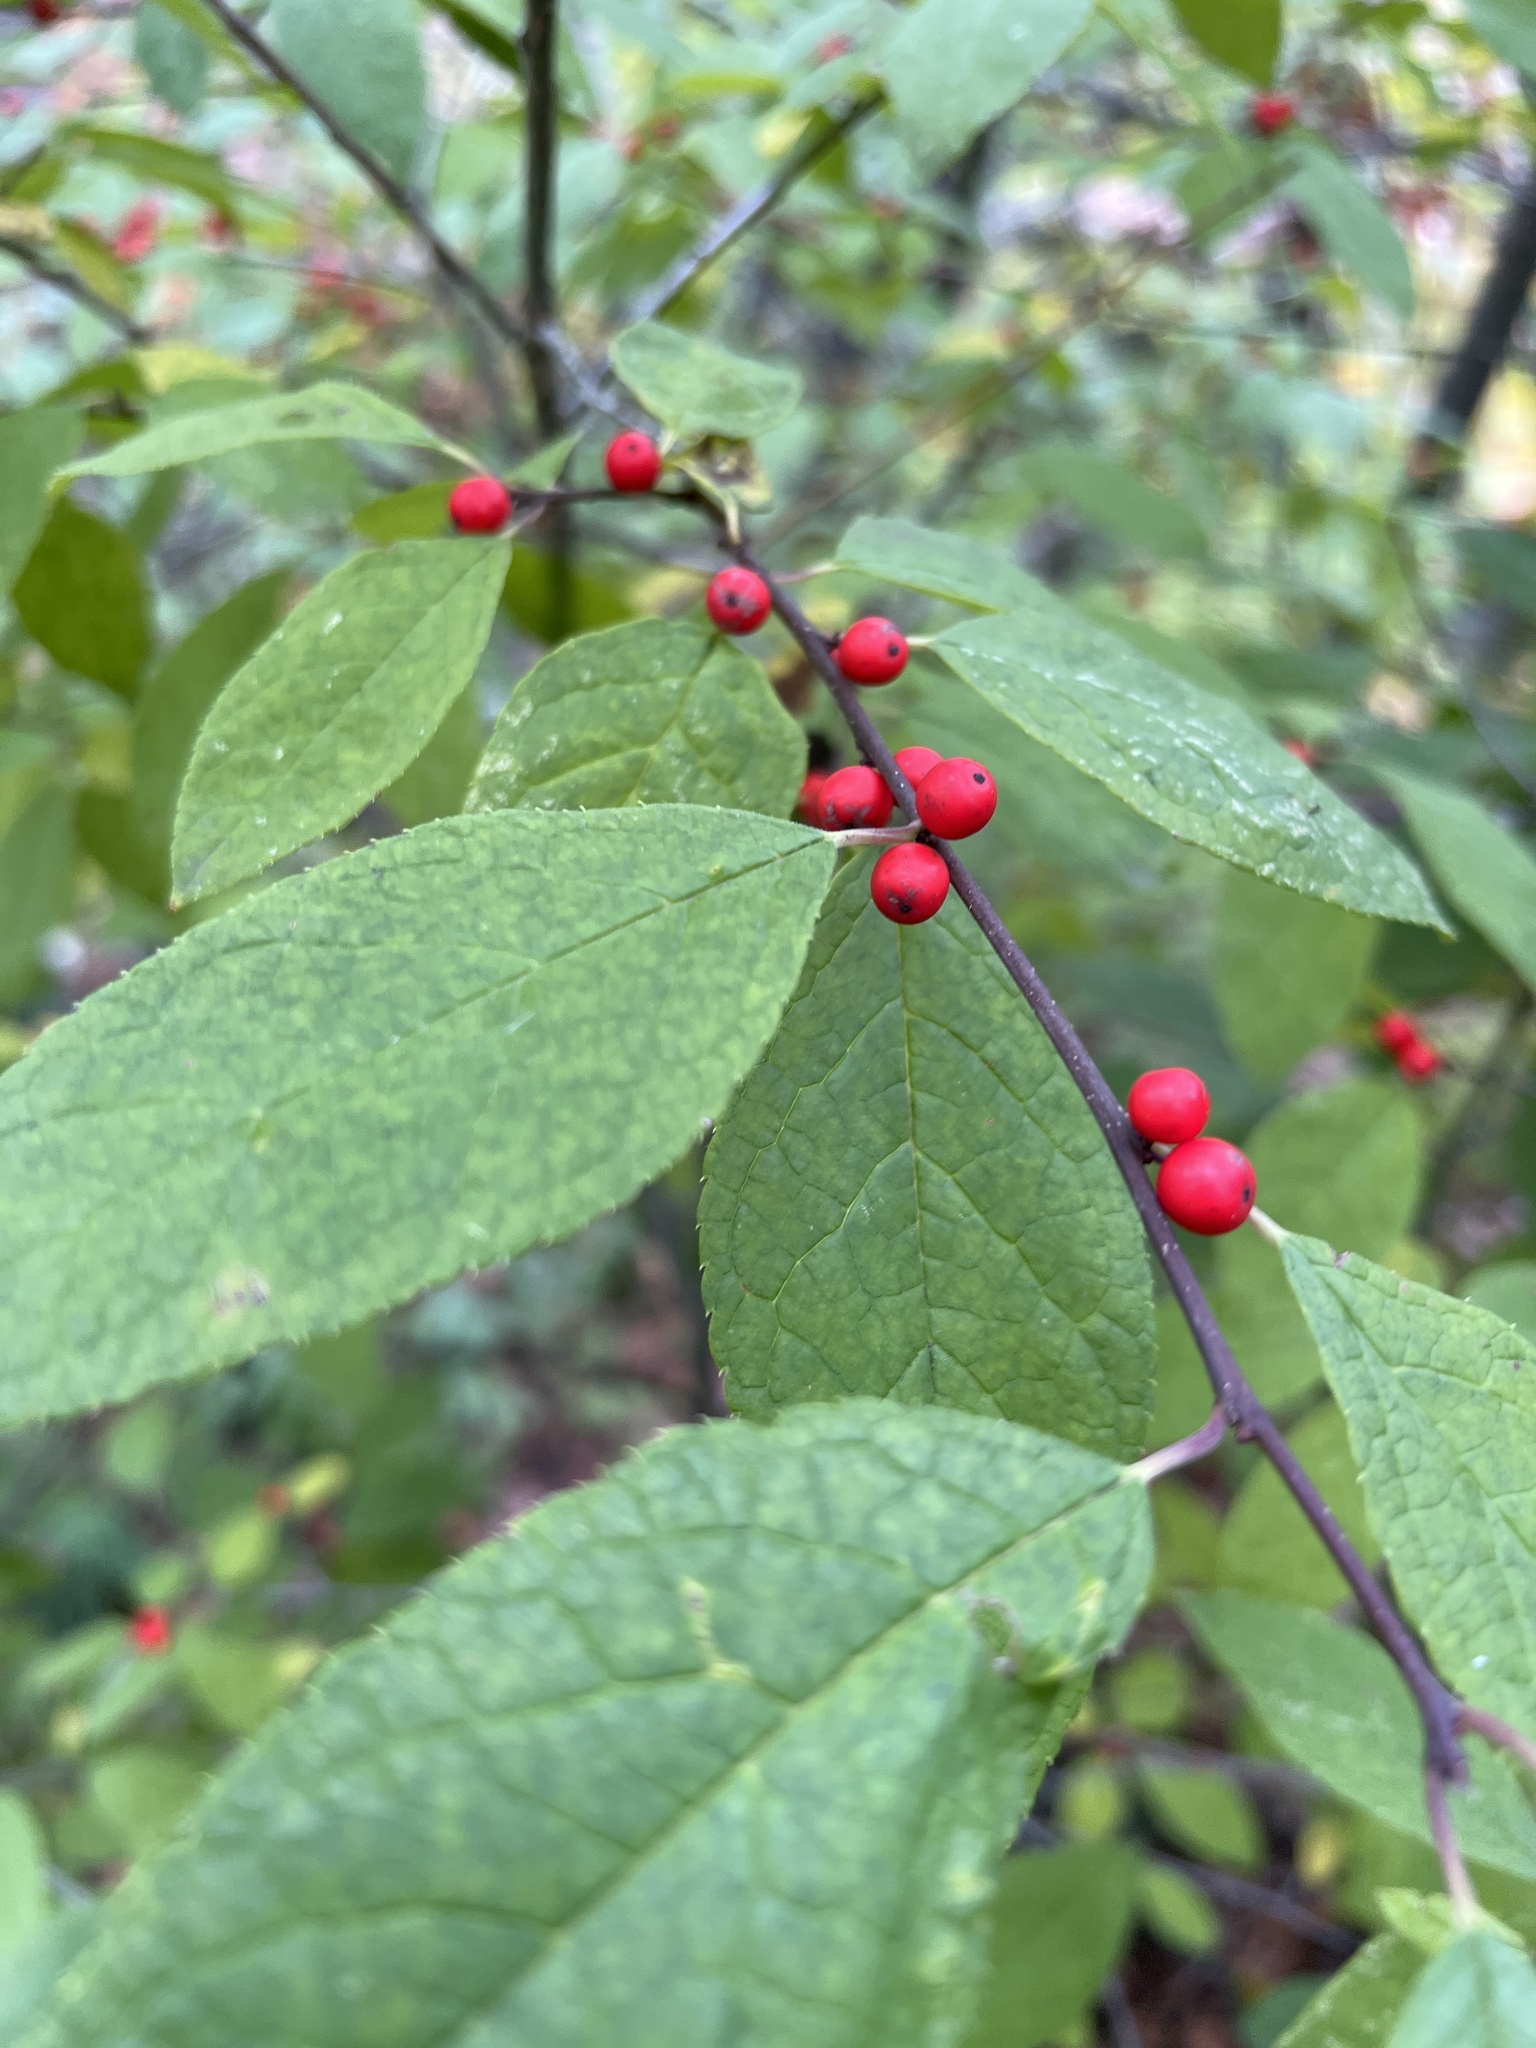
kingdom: Plantae
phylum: Tracheophyta
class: Magnoliopsida
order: Aquifoliales
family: Aquifoliaceae
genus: Ilex
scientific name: Ilex verticillata
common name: Virginia winterberry
